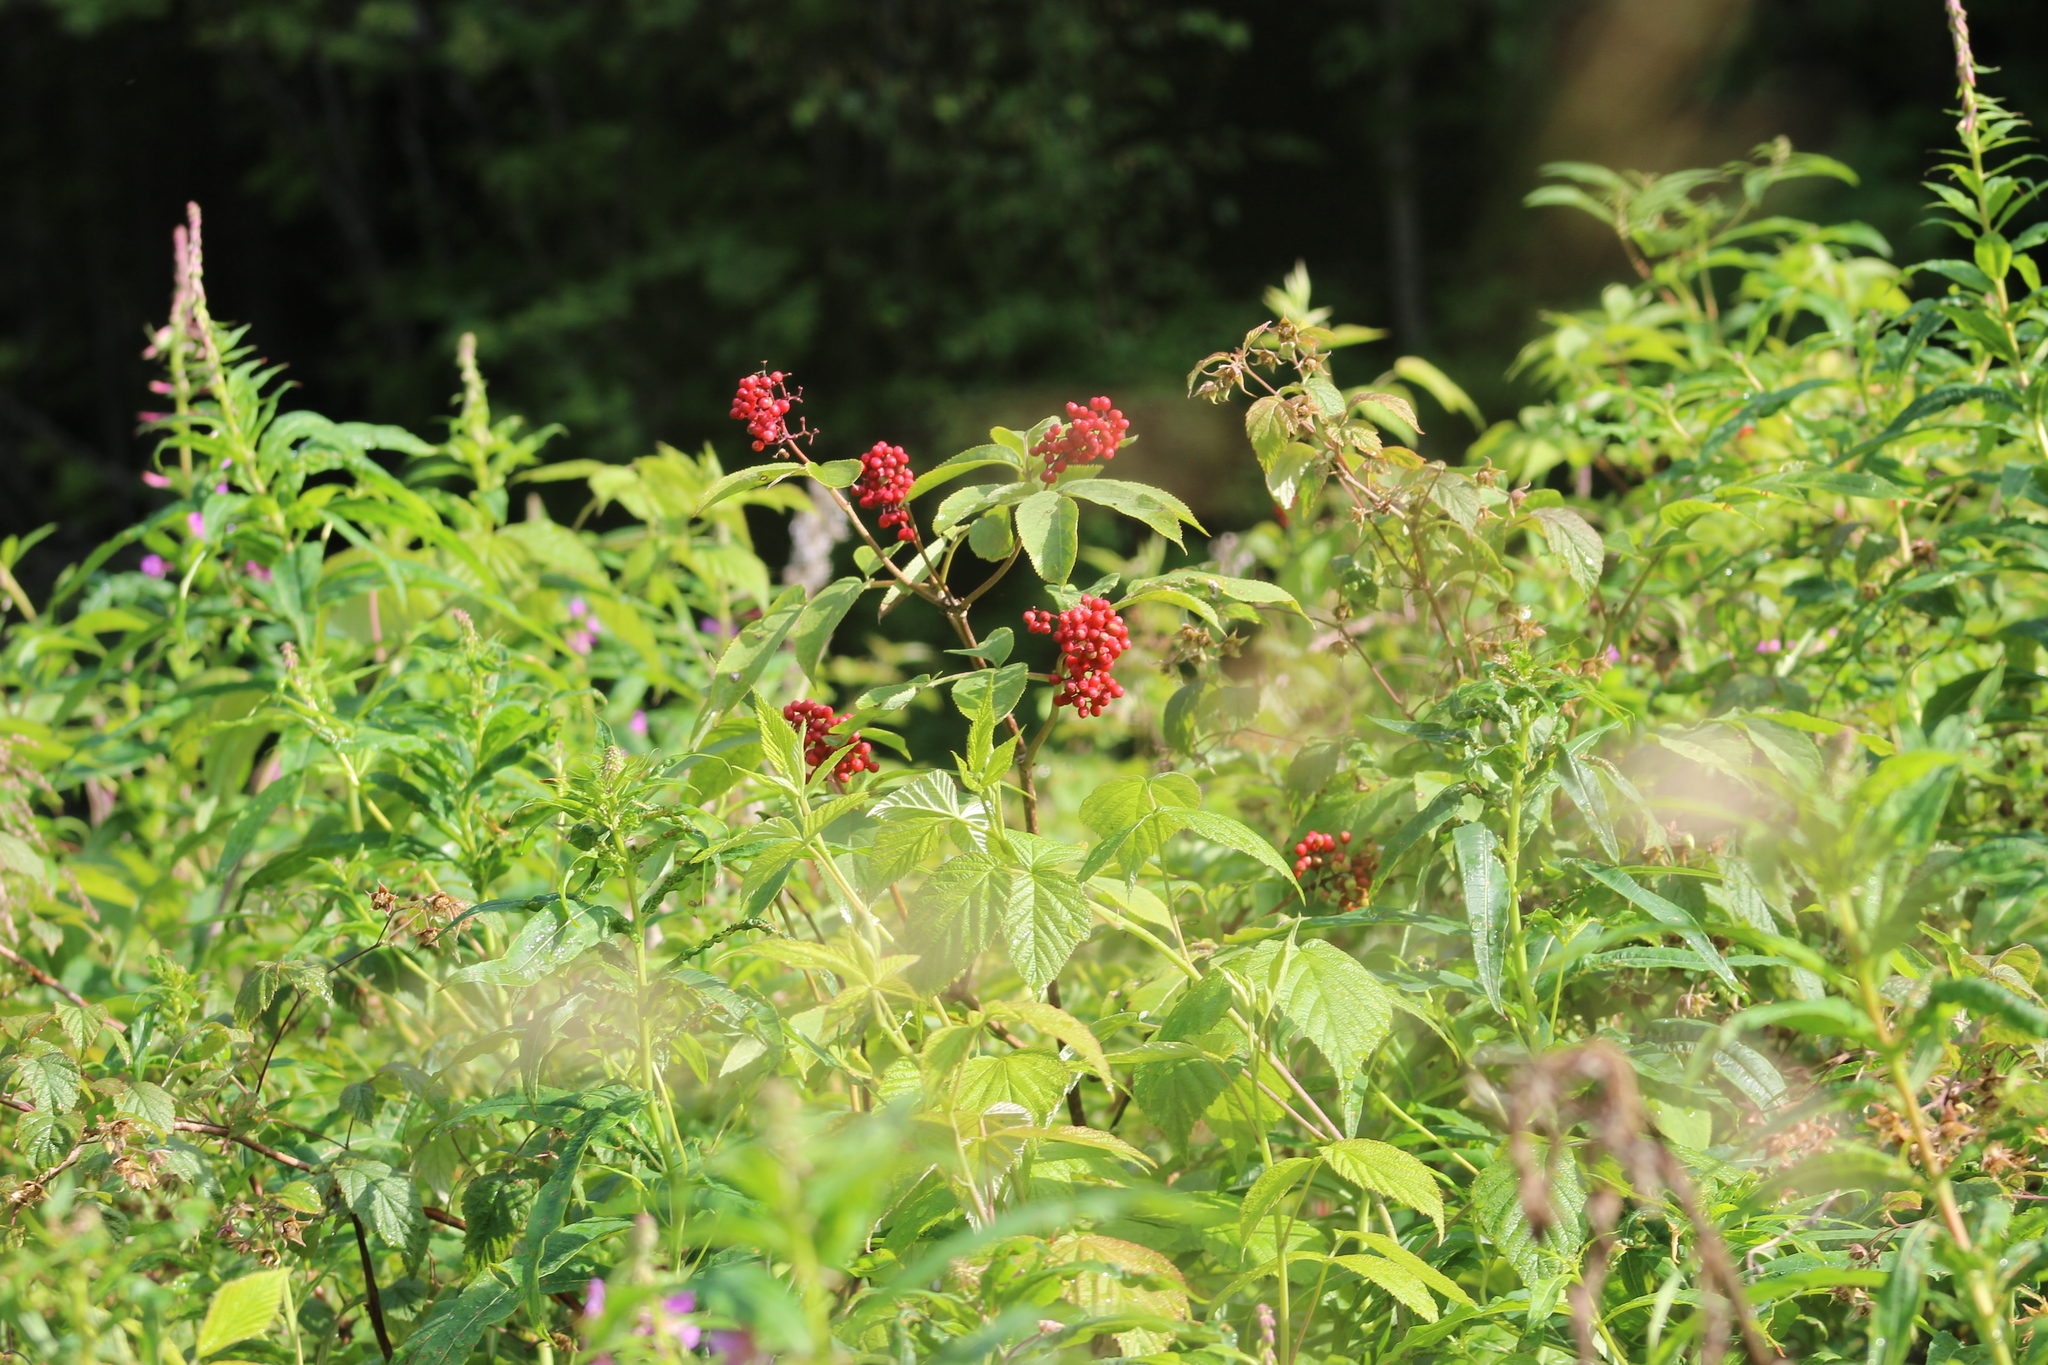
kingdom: Plantae
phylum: Tracheophyta
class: Magnoliopsida
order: Dipsacales
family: Viburnaceae
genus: Sambucus
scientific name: Sambucus sibirica
